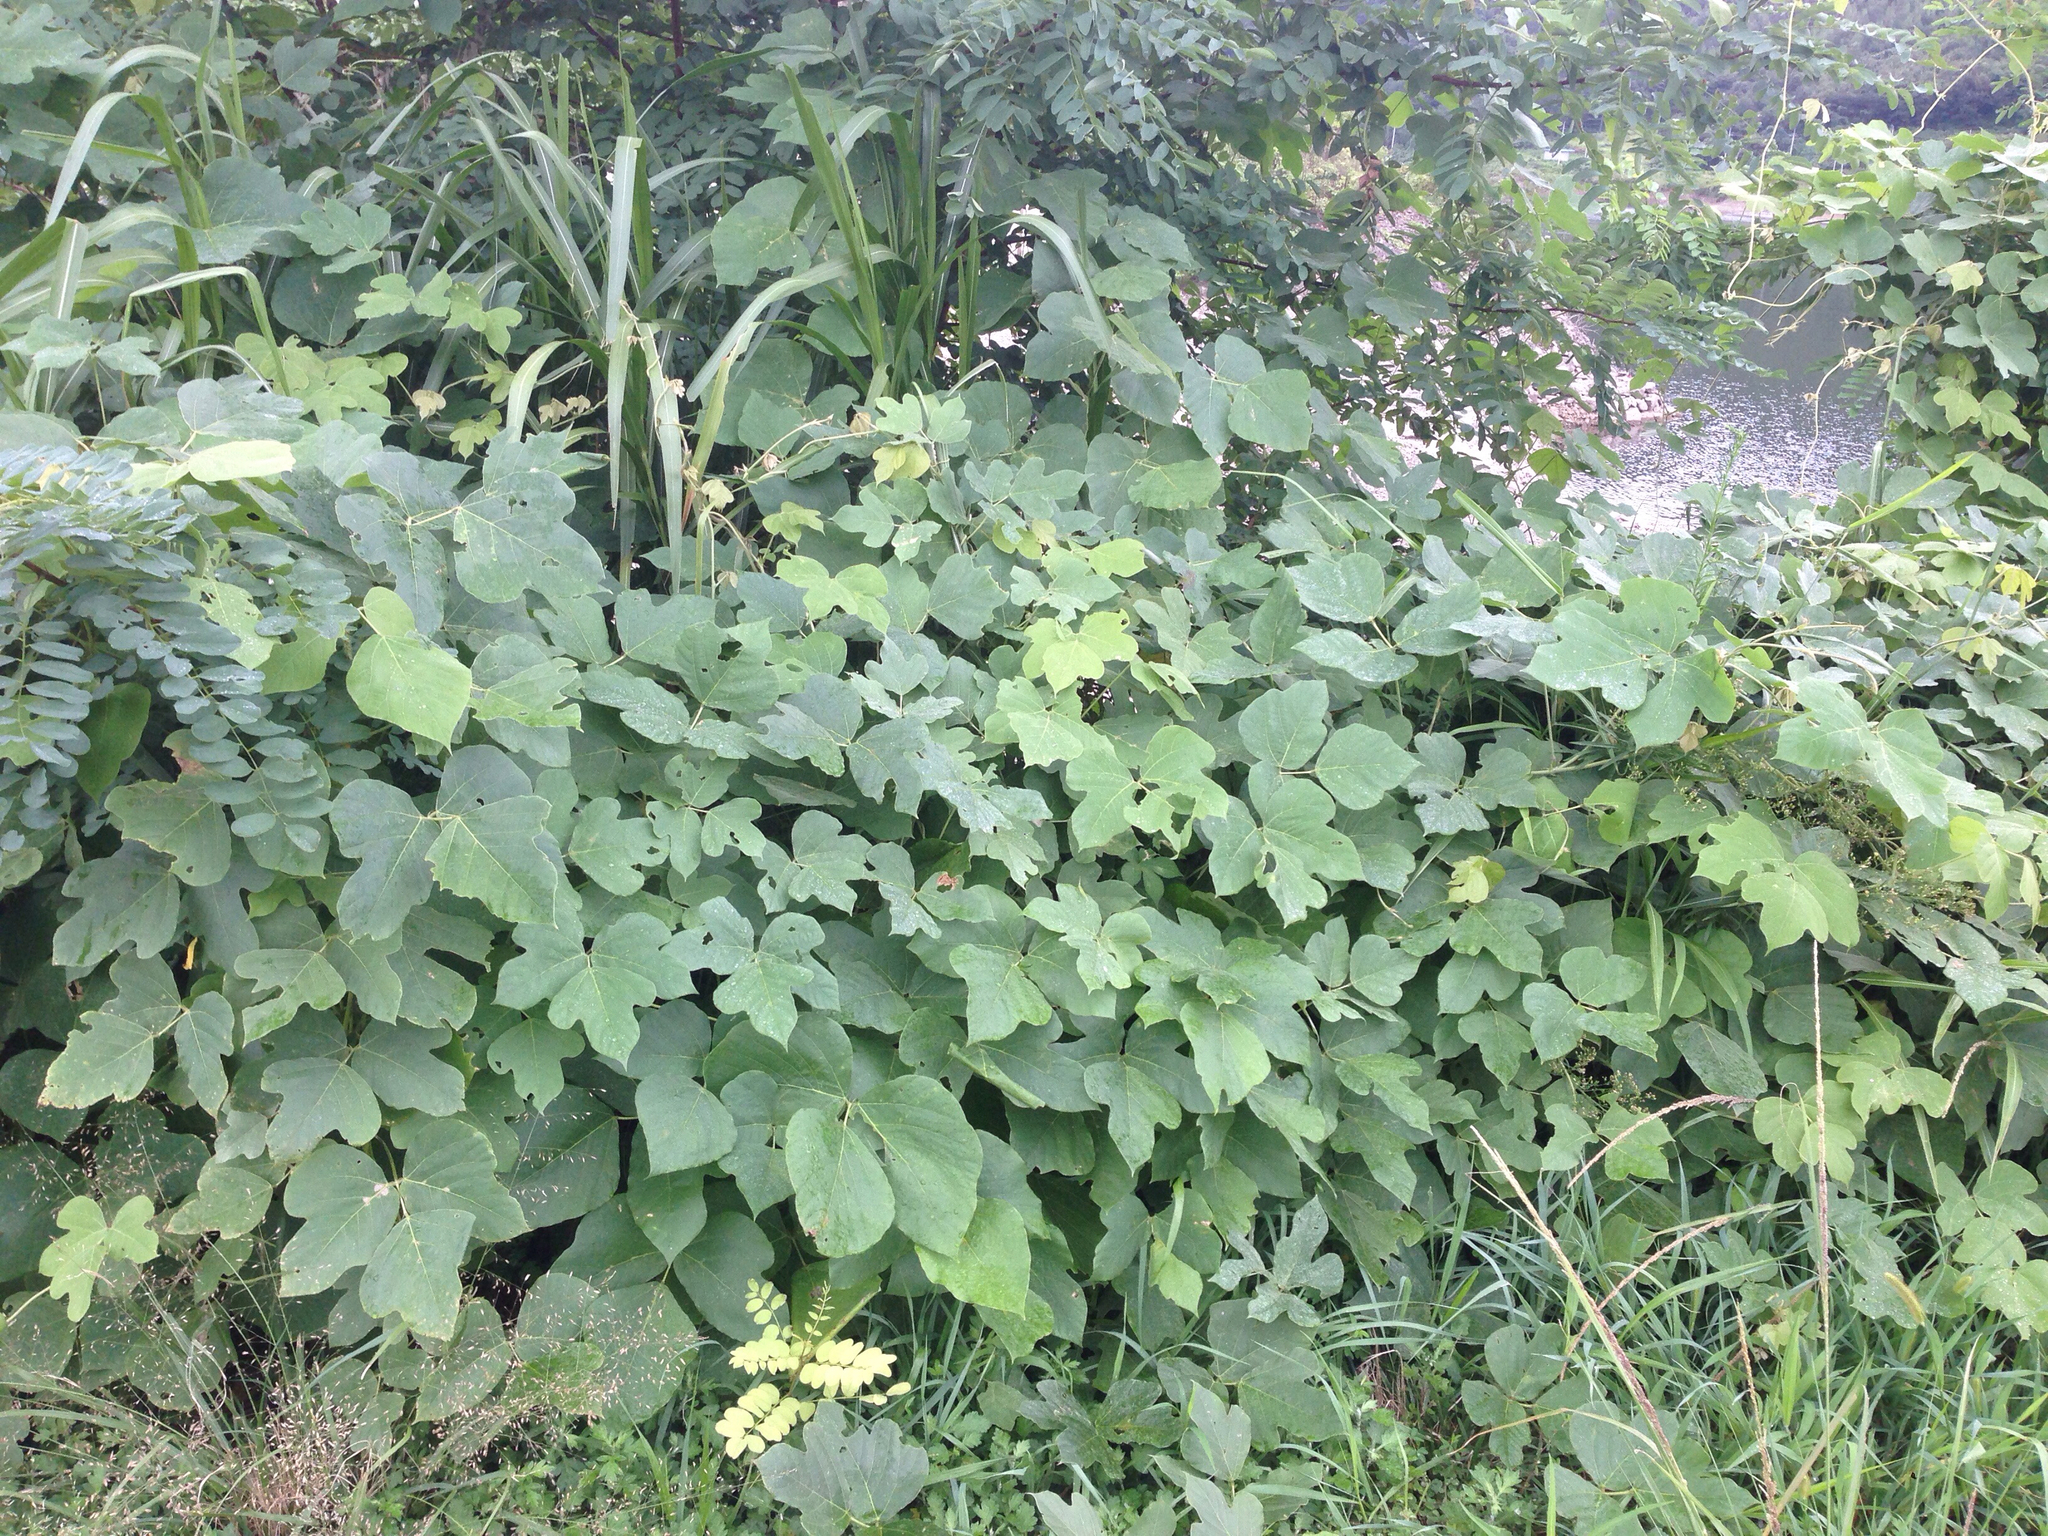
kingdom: Plantae
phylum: Tracheophyta
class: Magnoliopsida
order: Fabales
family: Fabaceae
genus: Pueraria
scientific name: Pueraria montana
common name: Kudzu
